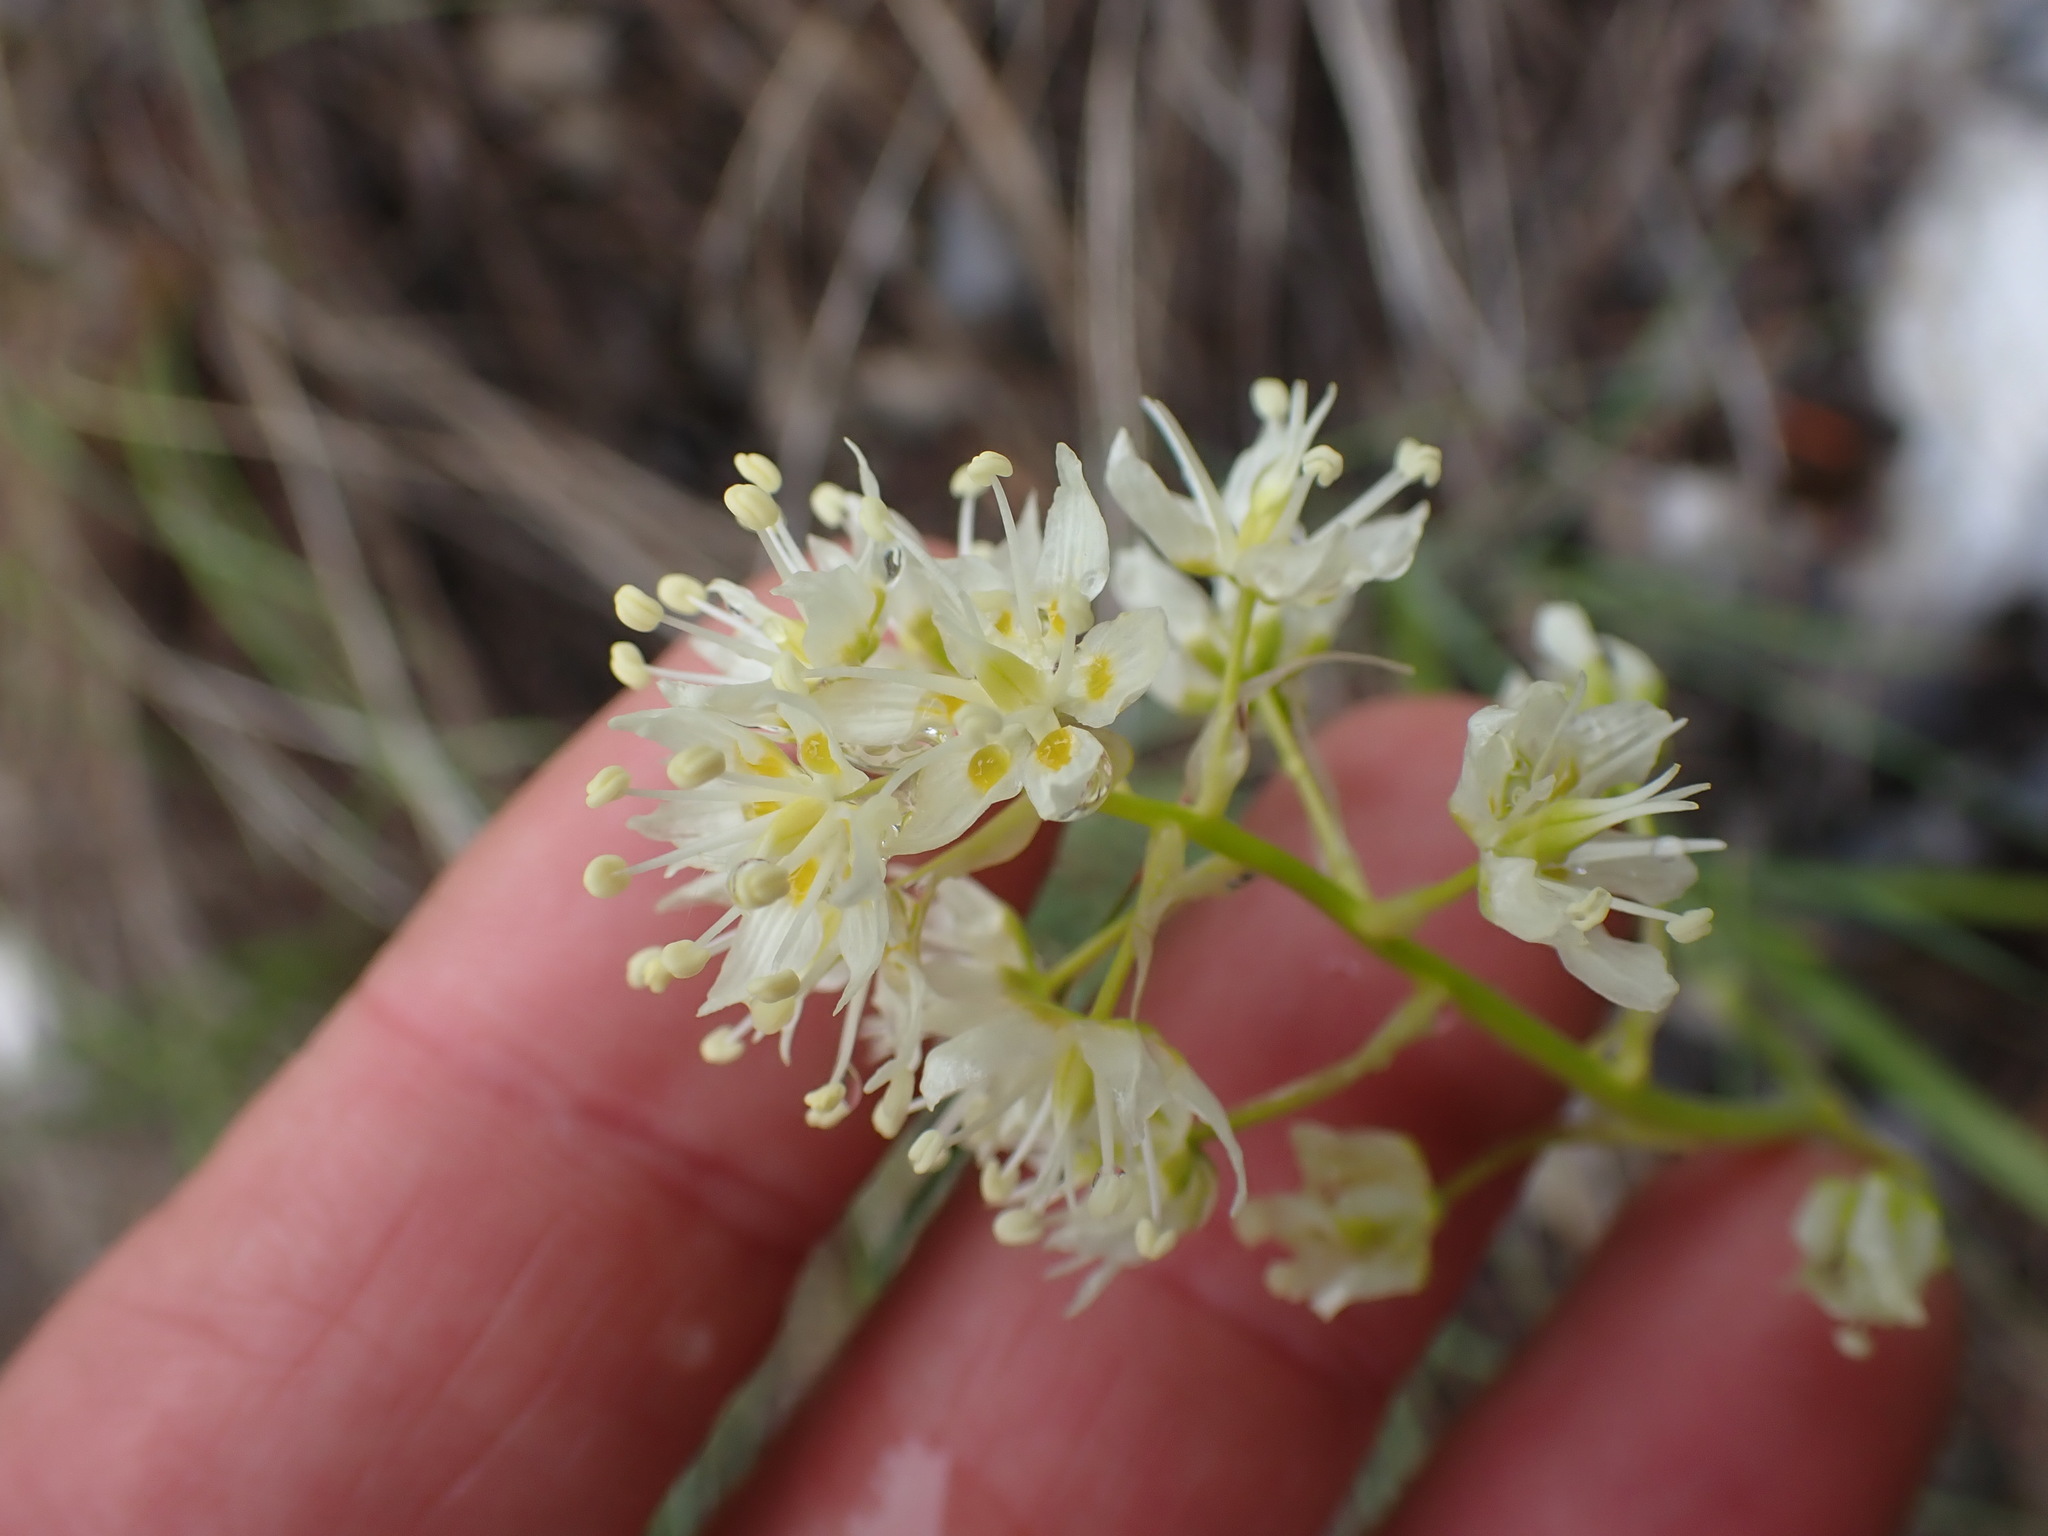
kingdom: Plantae
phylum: Tracheophyta
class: Liliopsida
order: Liliales
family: Melanthiaceae
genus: Toxicoscordion
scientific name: Toxicoscordion venenosum
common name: Meadow death camas
